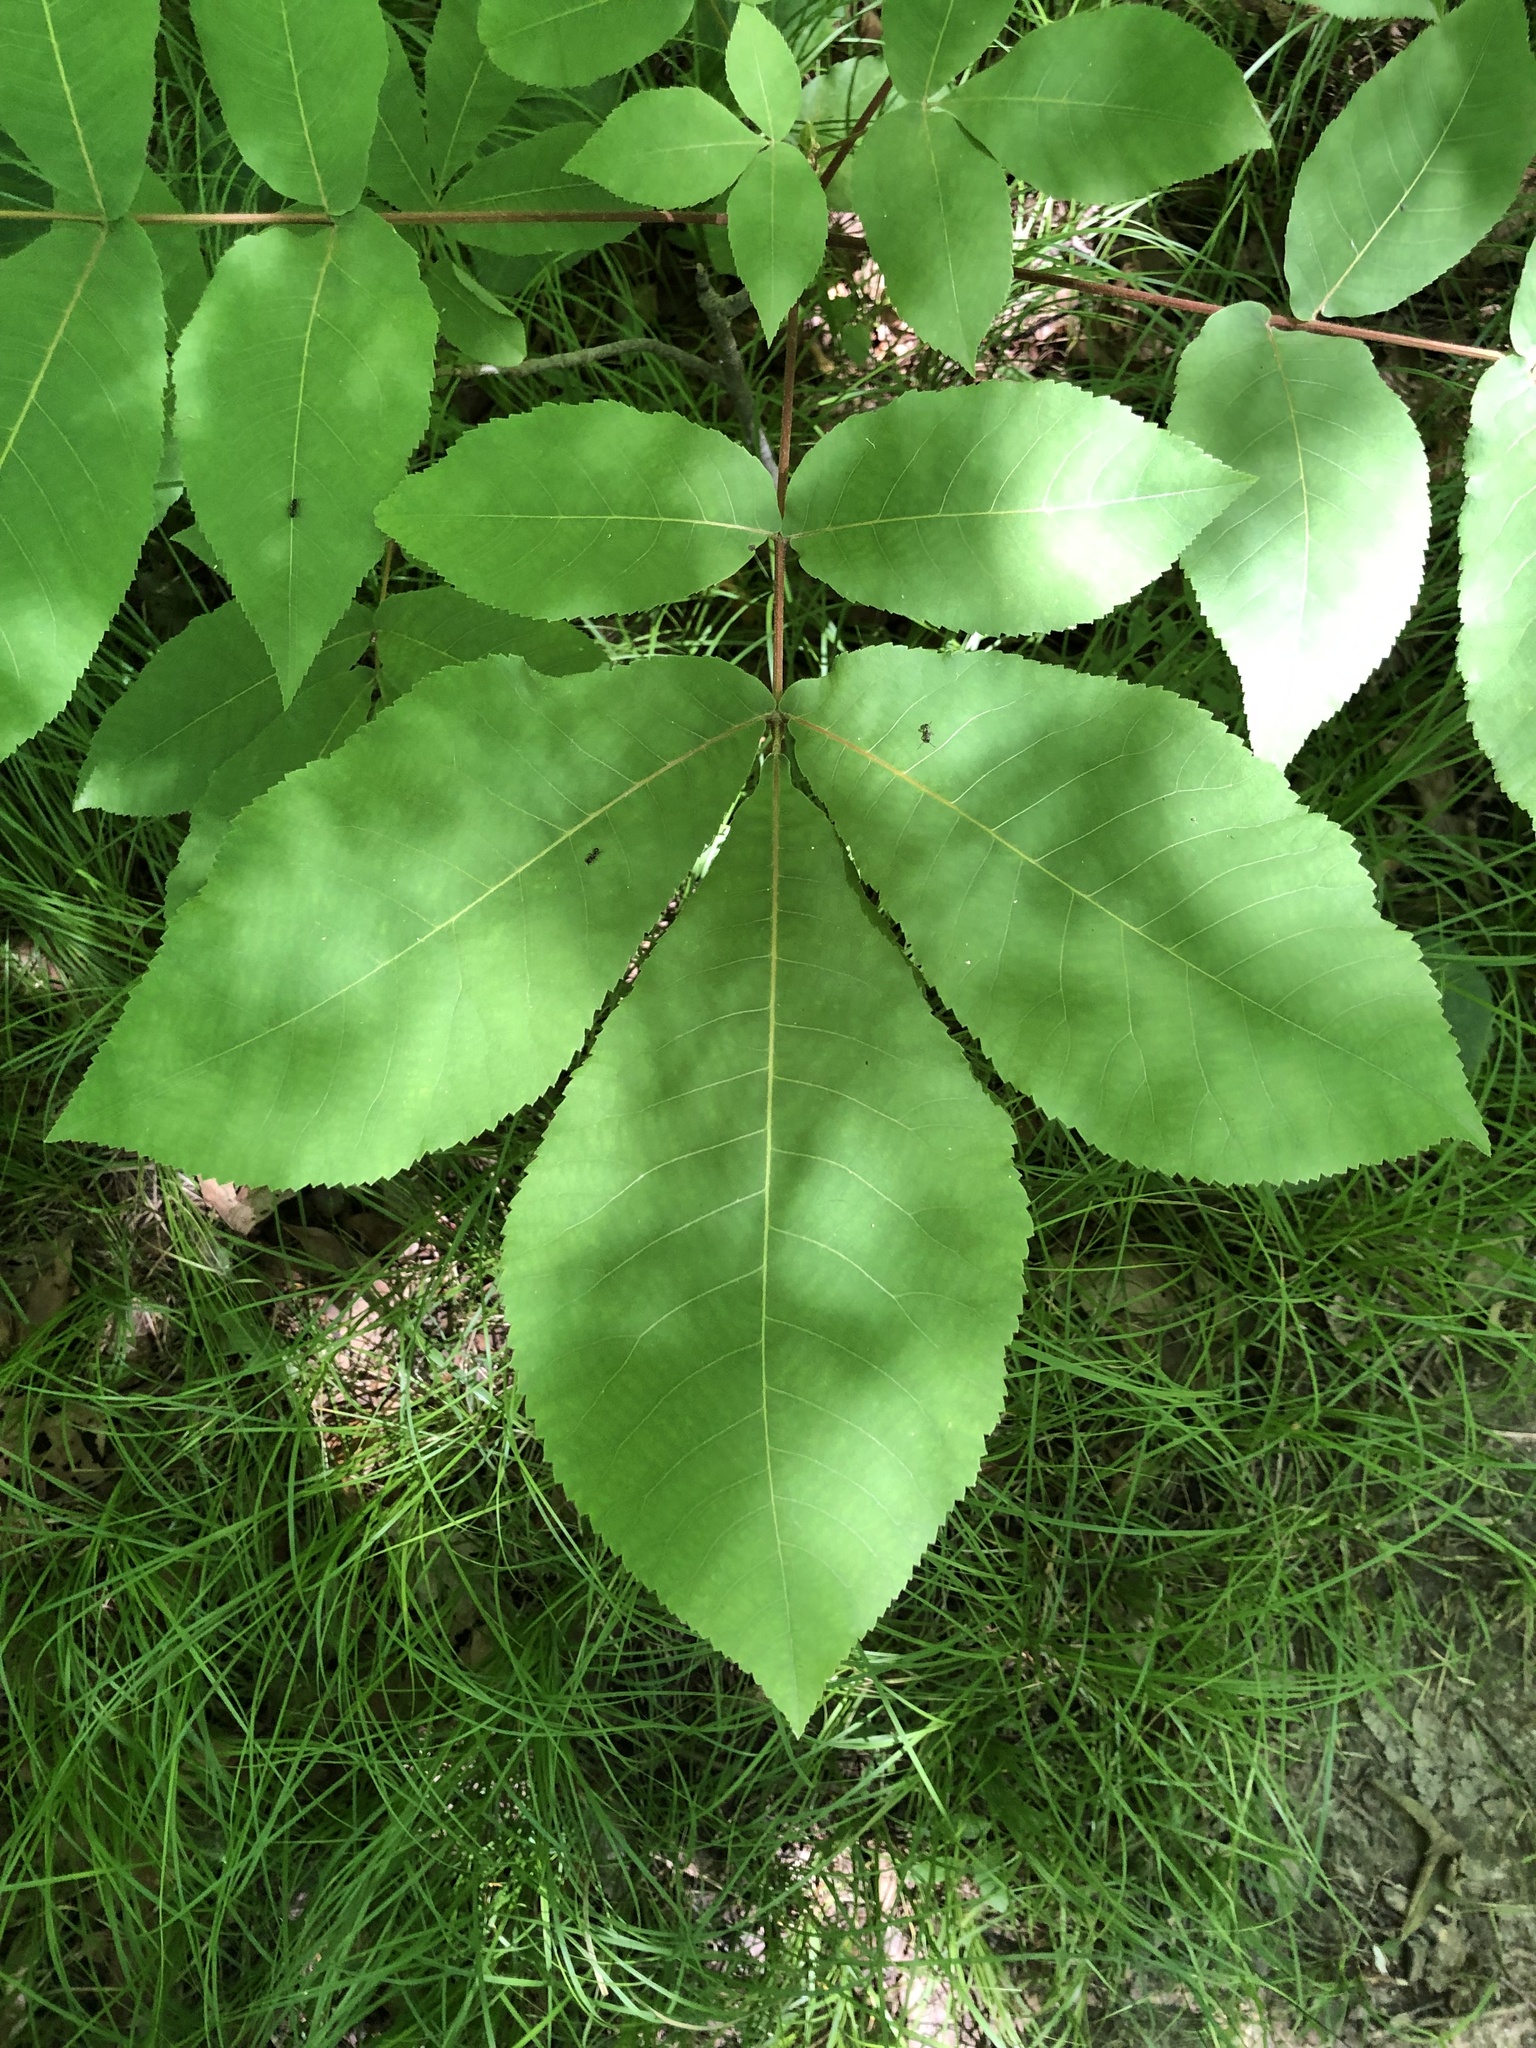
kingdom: Plantae
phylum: Tracheophyta
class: Magnoliopsida
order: Fagales
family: Juglandaceae
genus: Carya
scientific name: Carya ovata
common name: Shagbark hickory
